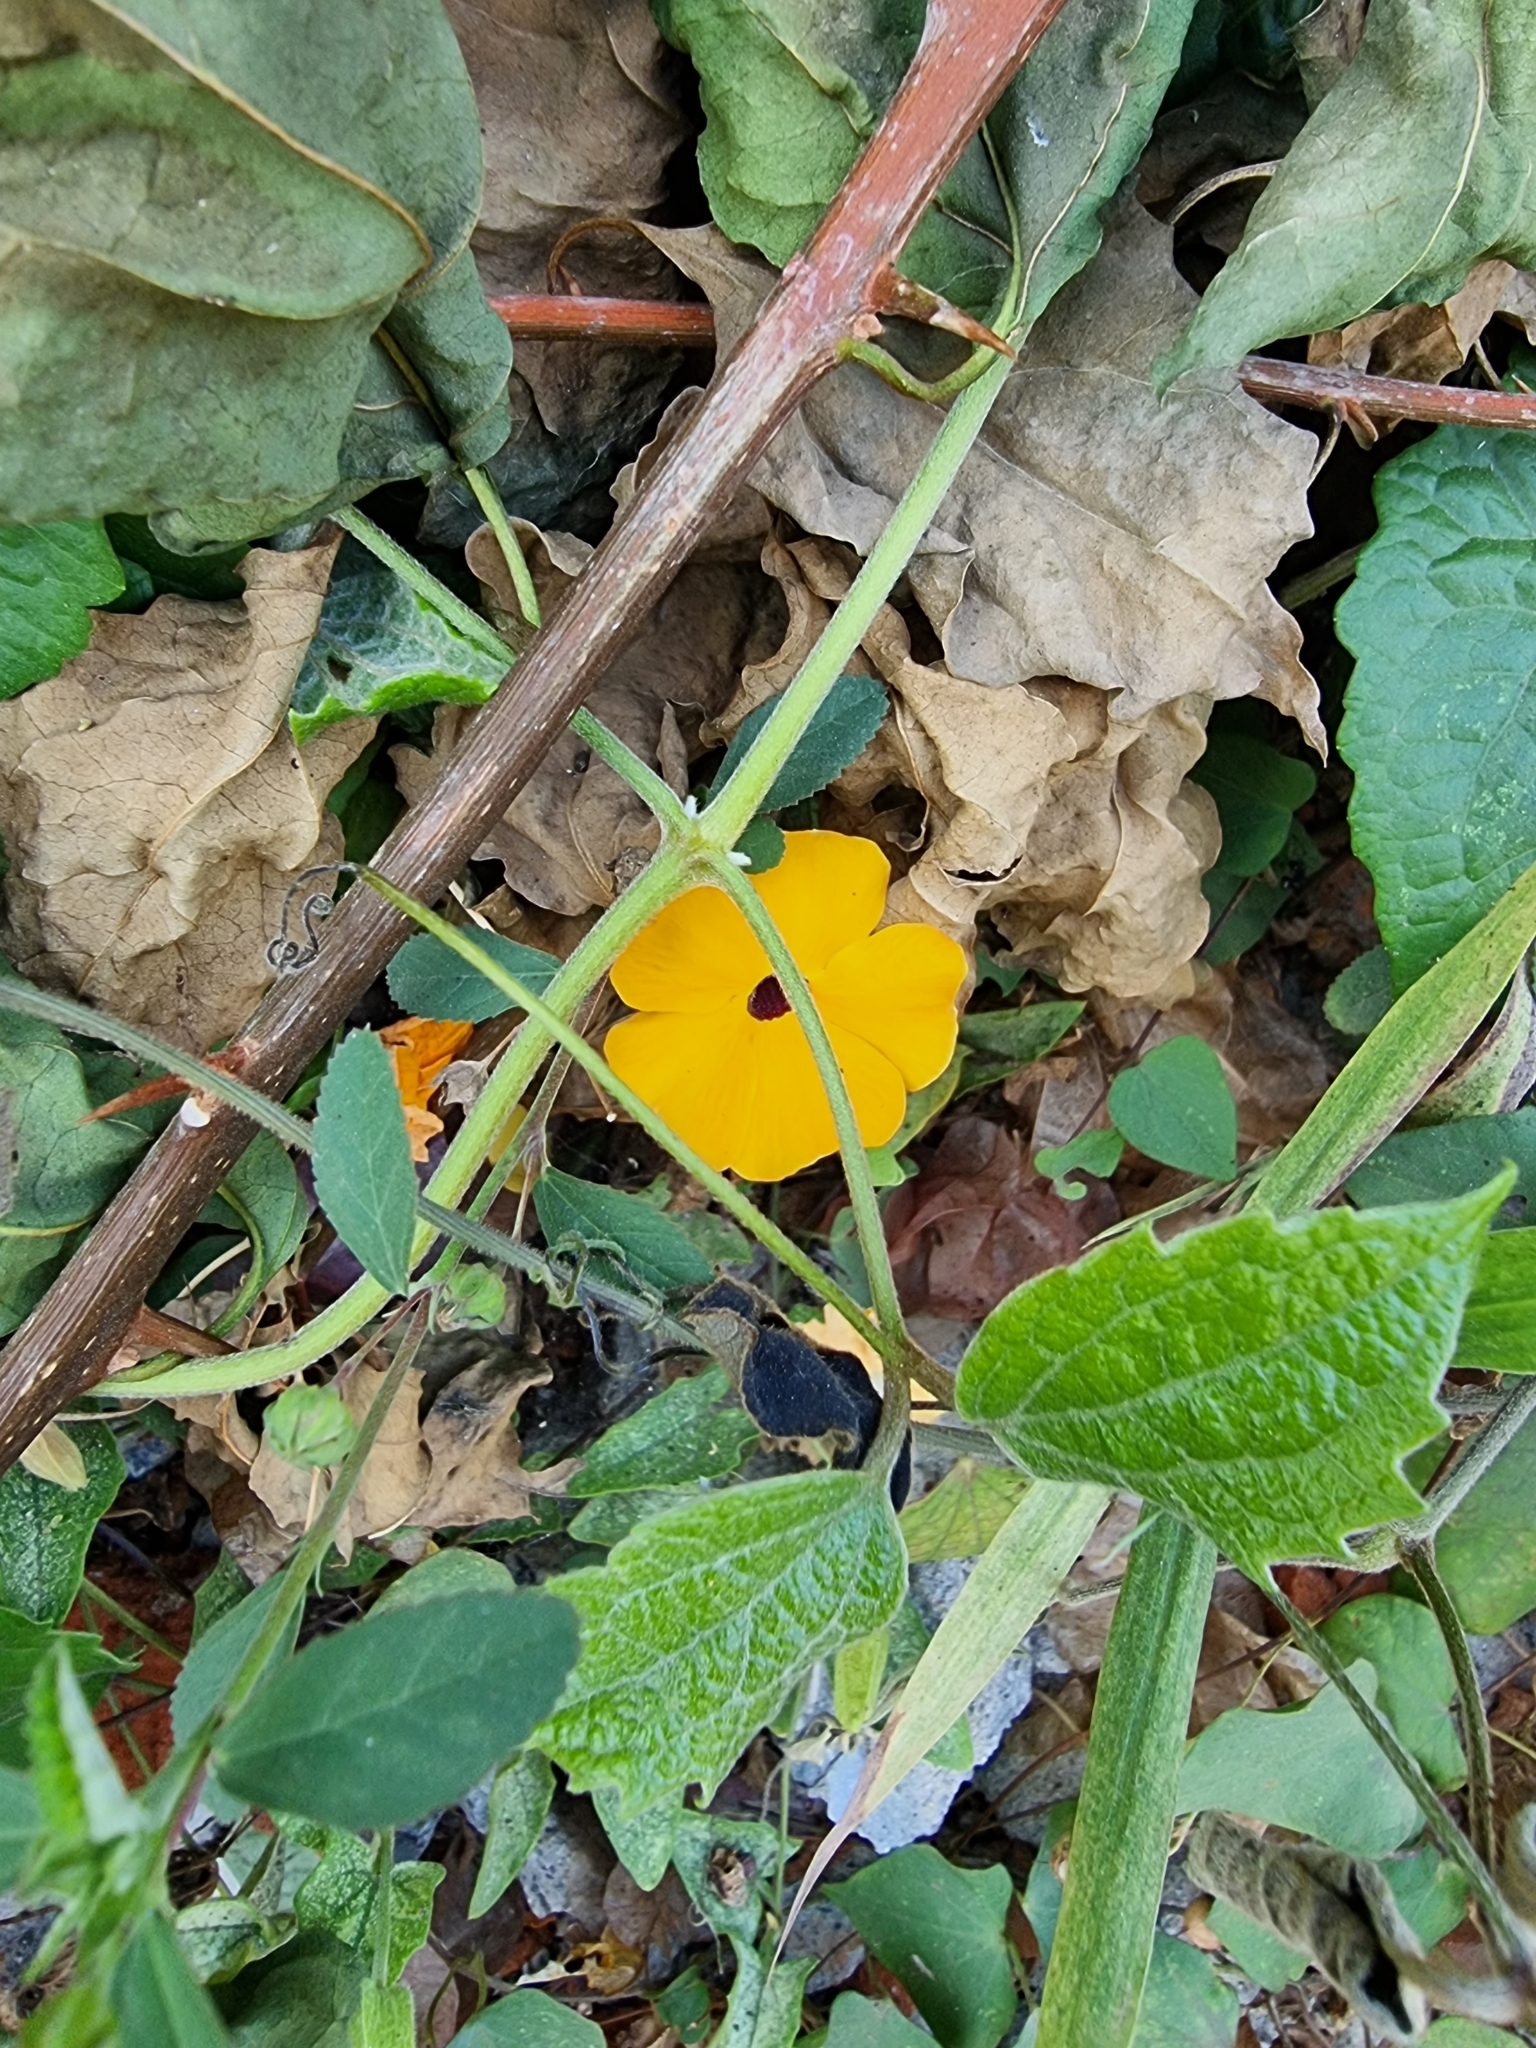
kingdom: Plantae
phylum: Tracheophyta
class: Magnoliopsida
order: Lamiales
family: Acanthaceae
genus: Thunbergia
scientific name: Thunbergia alata
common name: Blackeyed susan vine
